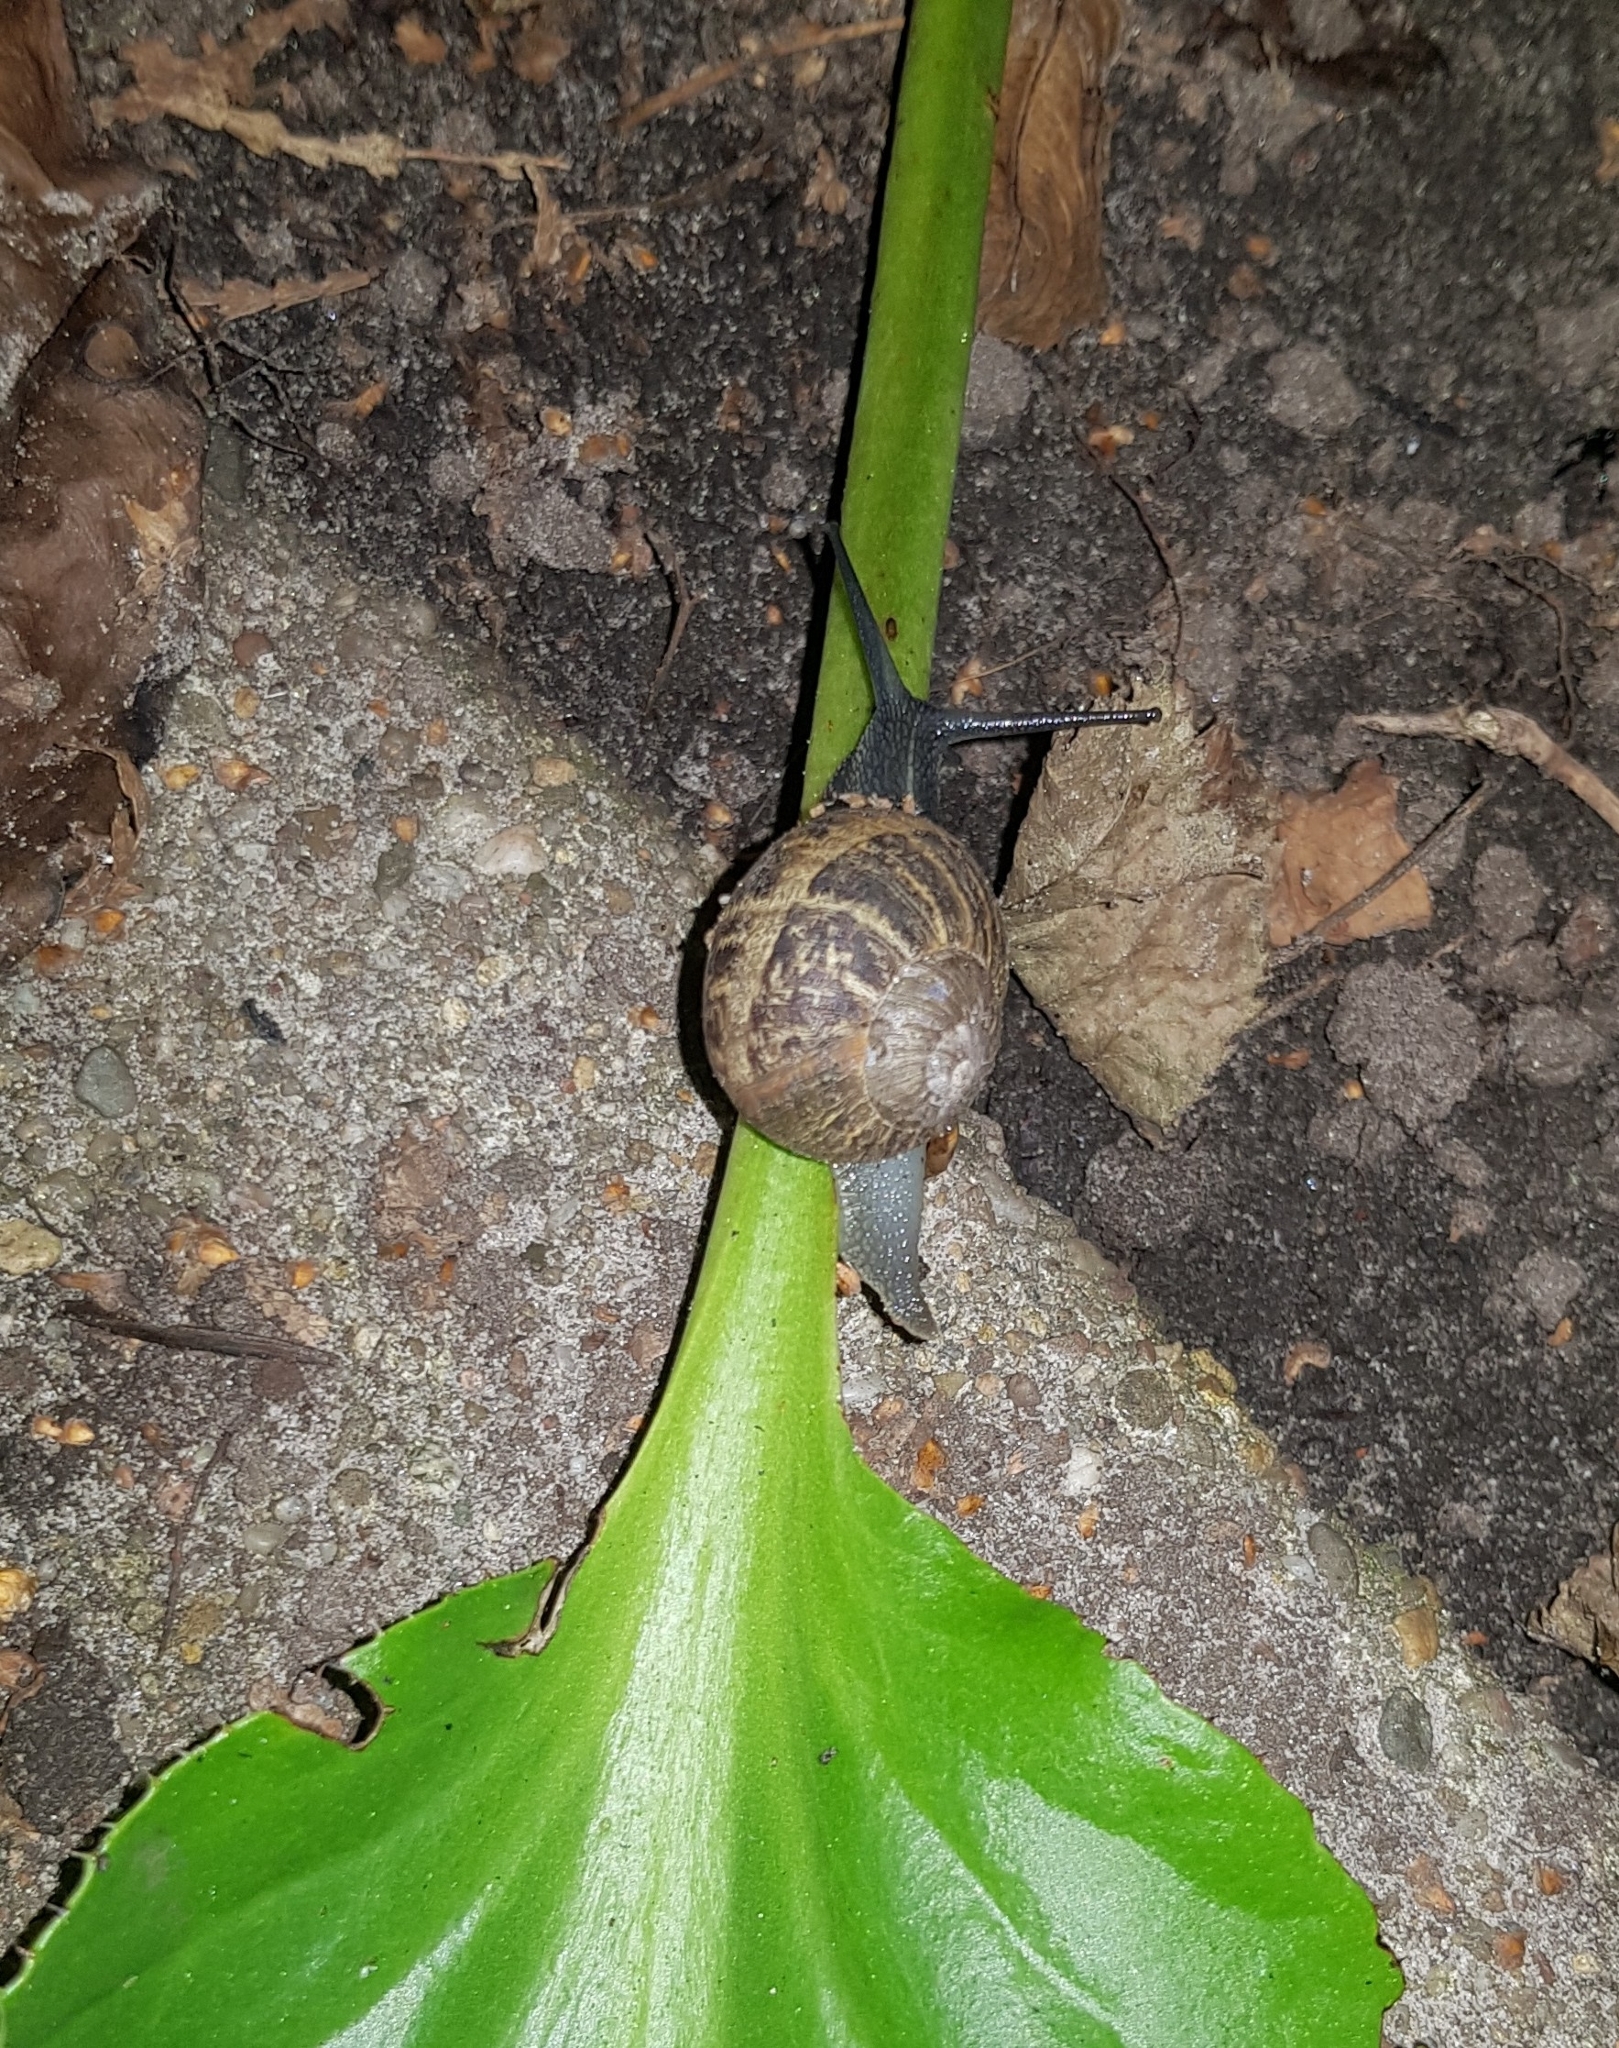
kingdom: Animalia
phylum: Mollusca
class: Gastropoda
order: Stylommatophora
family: Helicidae
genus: Cornu
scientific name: Cornu aspersum
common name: Brown garden snail
